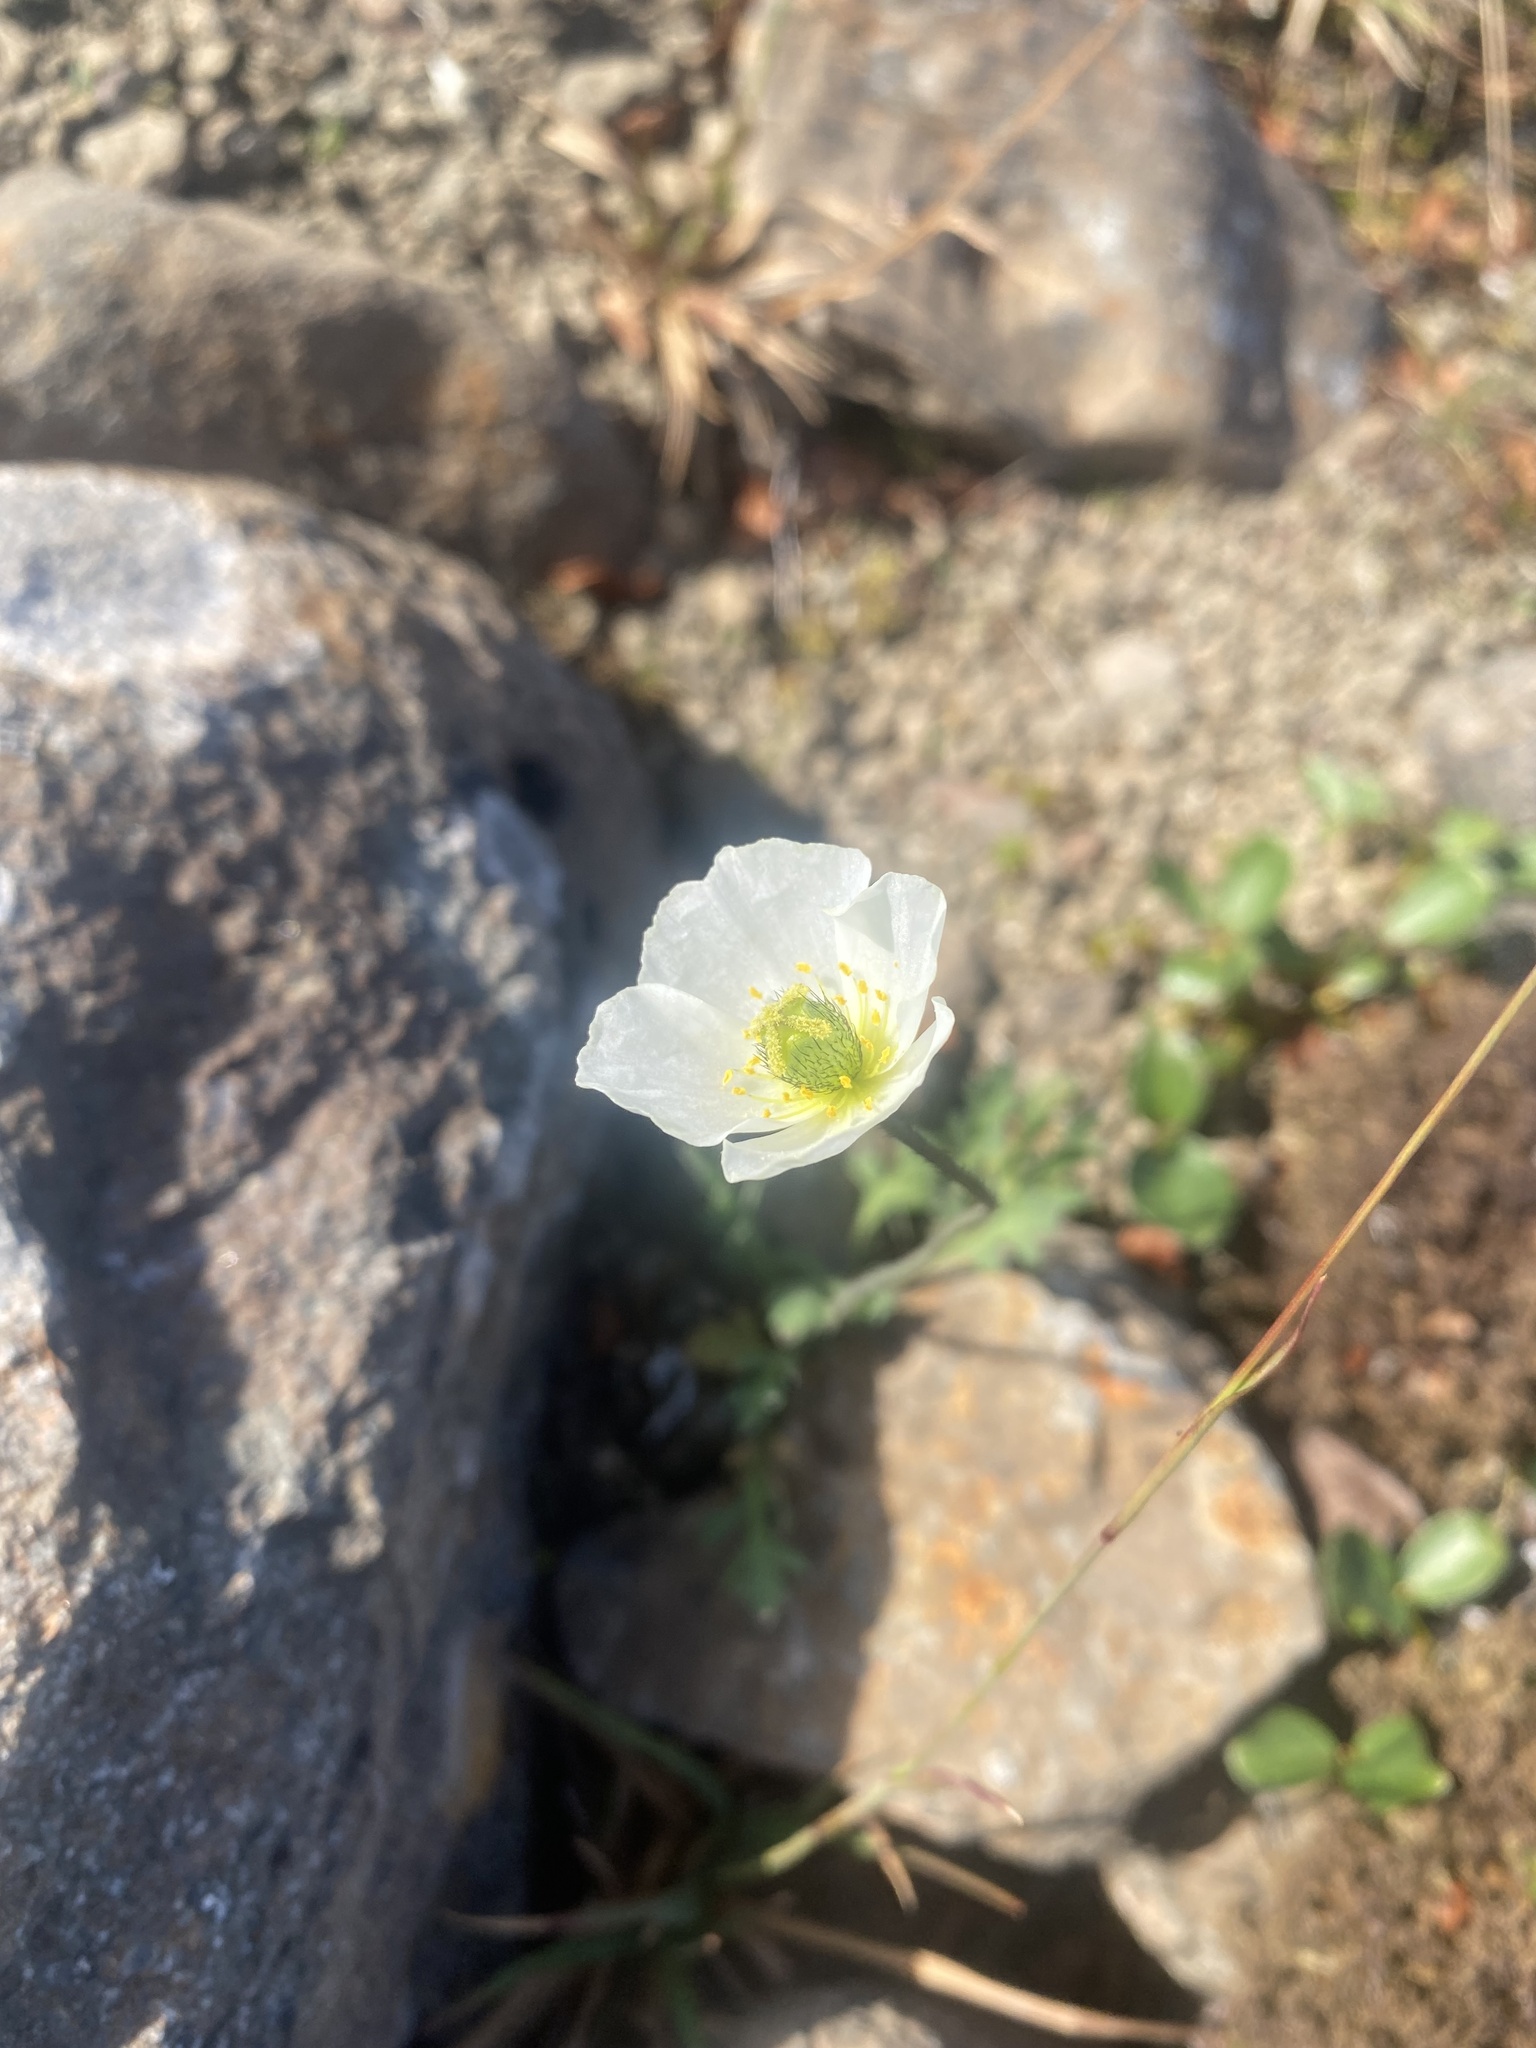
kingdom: Plantae
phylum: Tracheophyta
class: Magnoliopsida
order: Ranunculales
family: Papaveraceae
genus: Papaver
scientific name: Papaver variegatum
